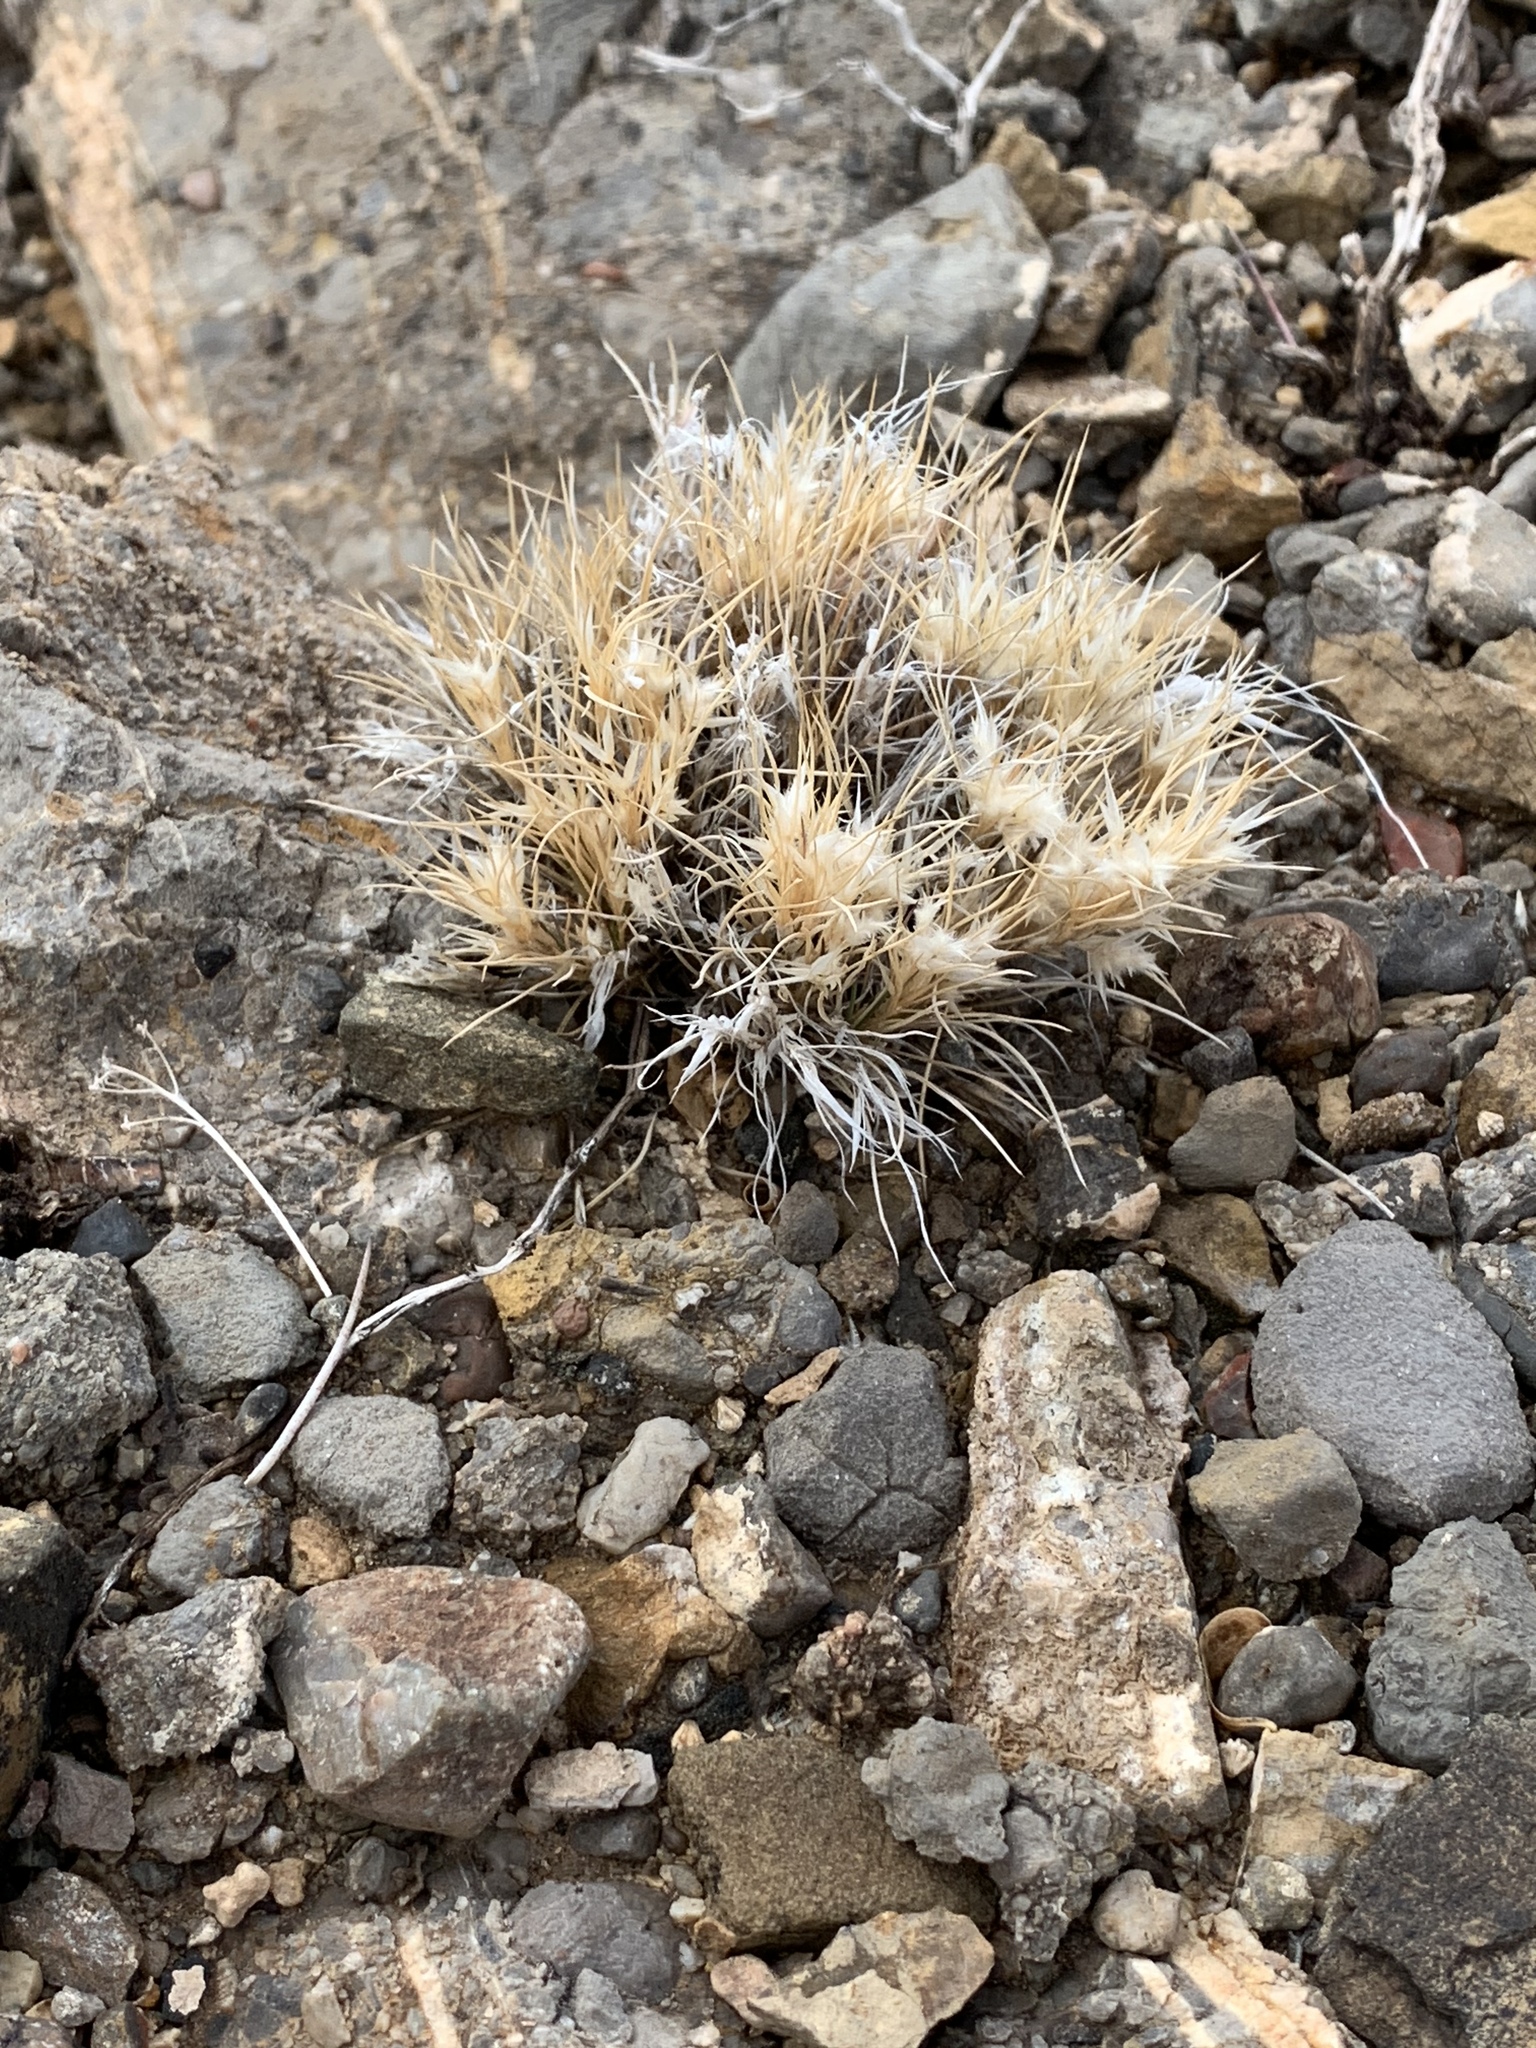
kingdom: Plantae
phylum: Tracheophyta
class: Liliopsida
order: Poales
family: Poaceae
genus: Dasyochloa
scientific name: Dasyochloa pulchella
